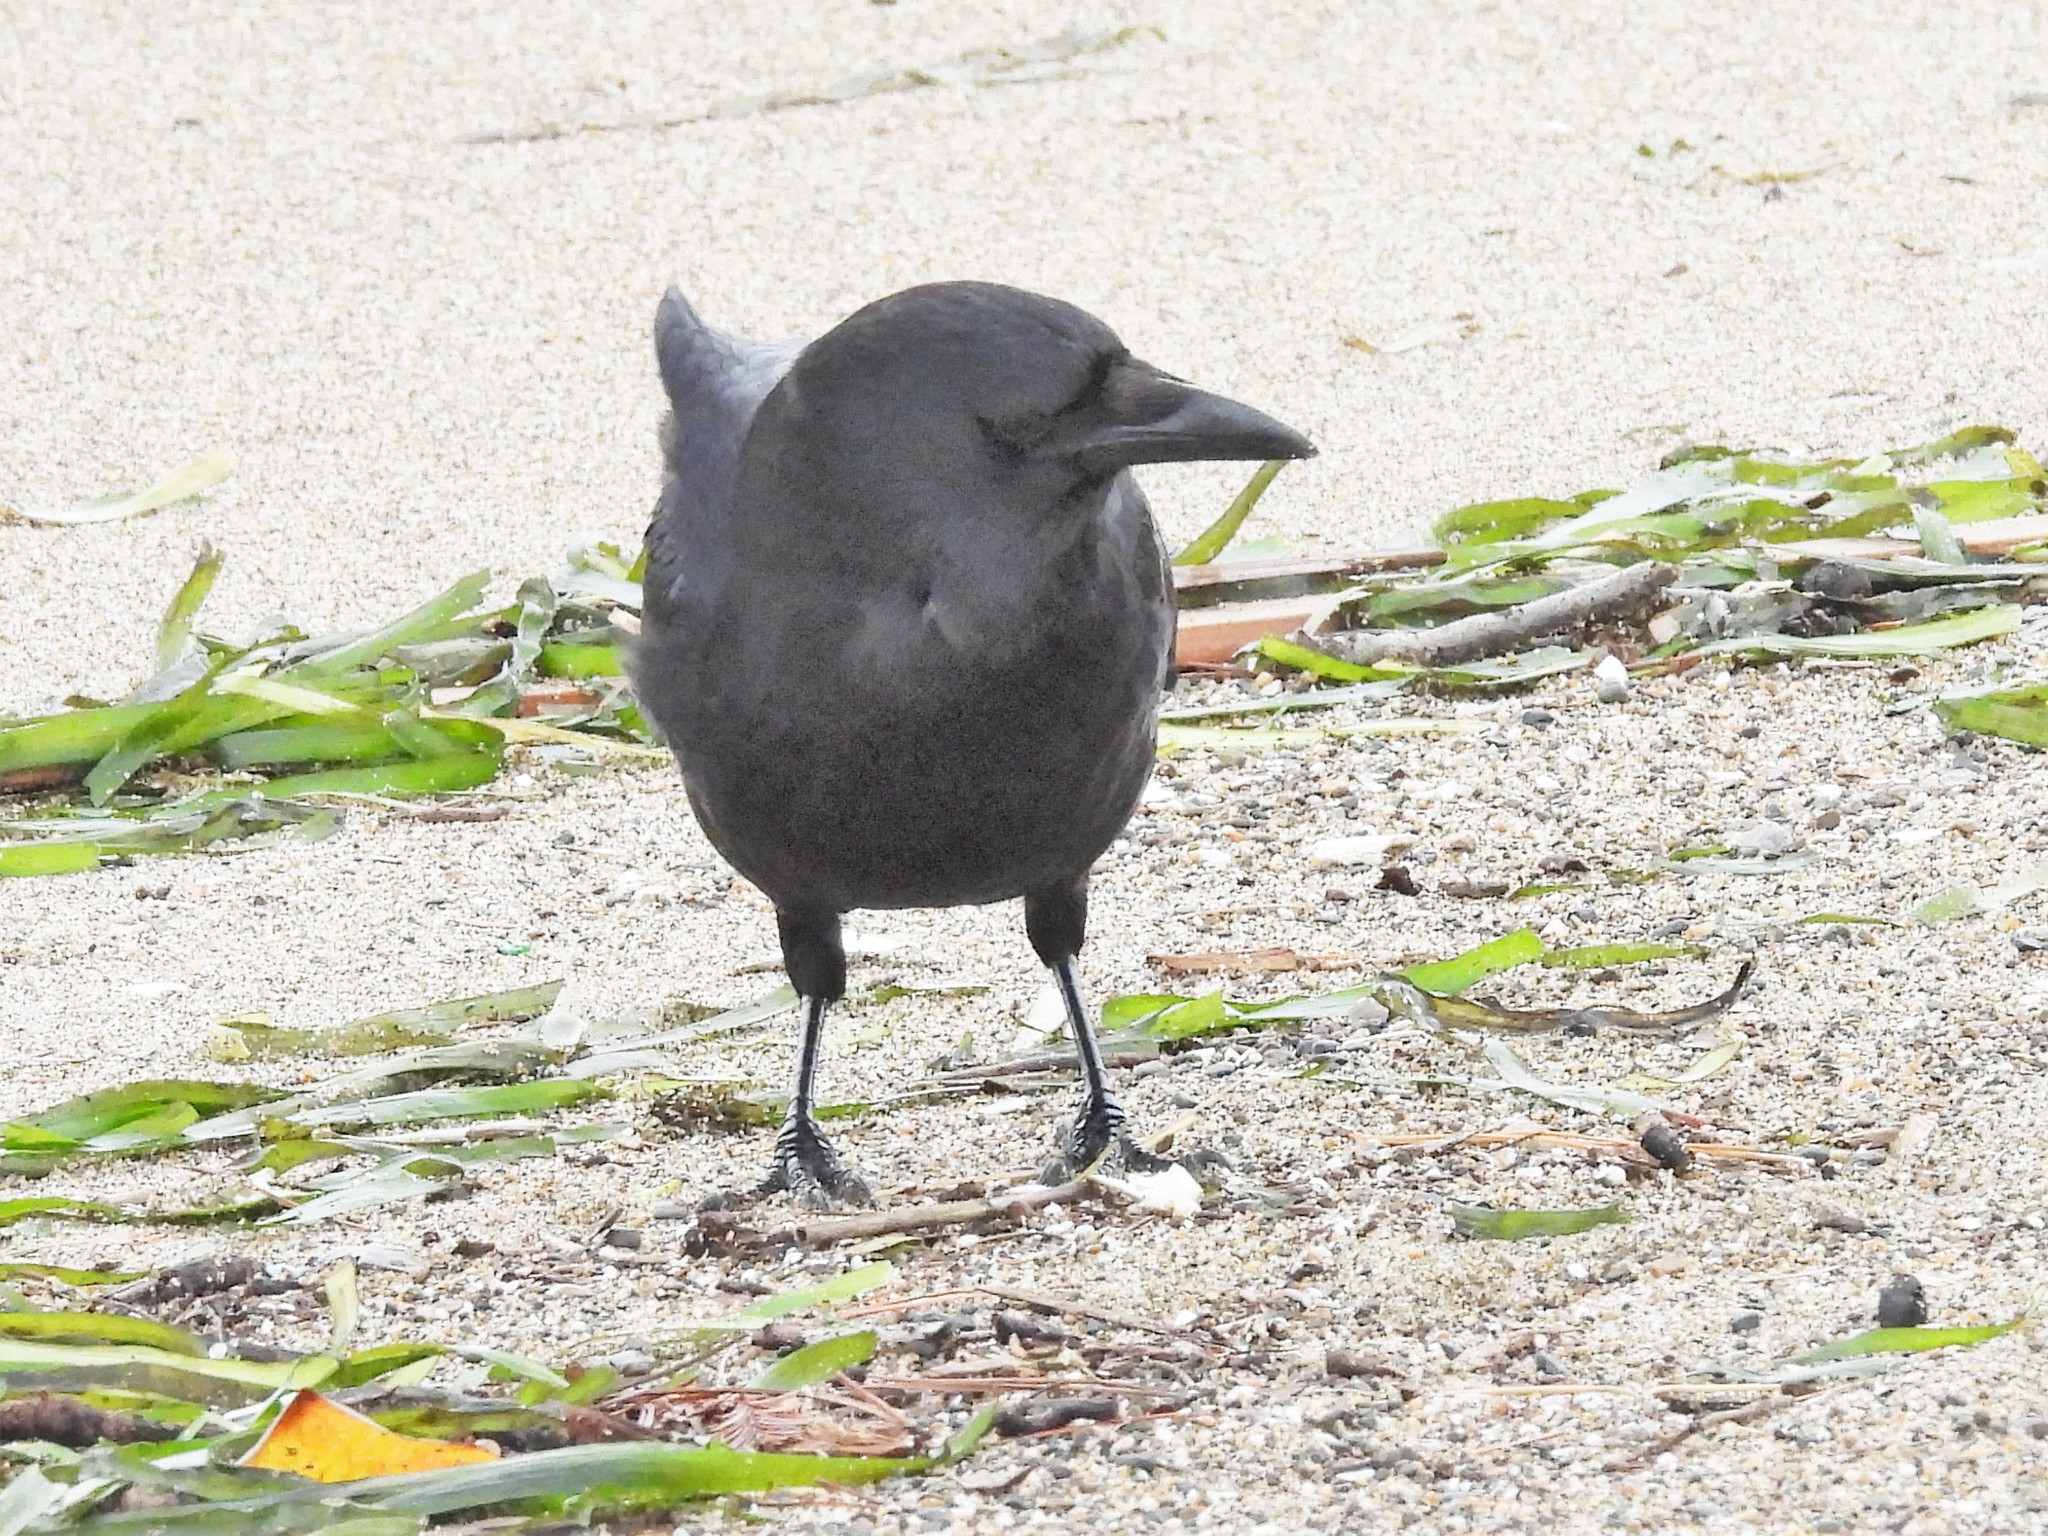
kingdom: Animalia
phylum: Chordata
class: Aves
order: Passeriformes
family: Corvidae
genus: Corvus
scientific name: Corvus brachyrhynchos
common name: American crow
